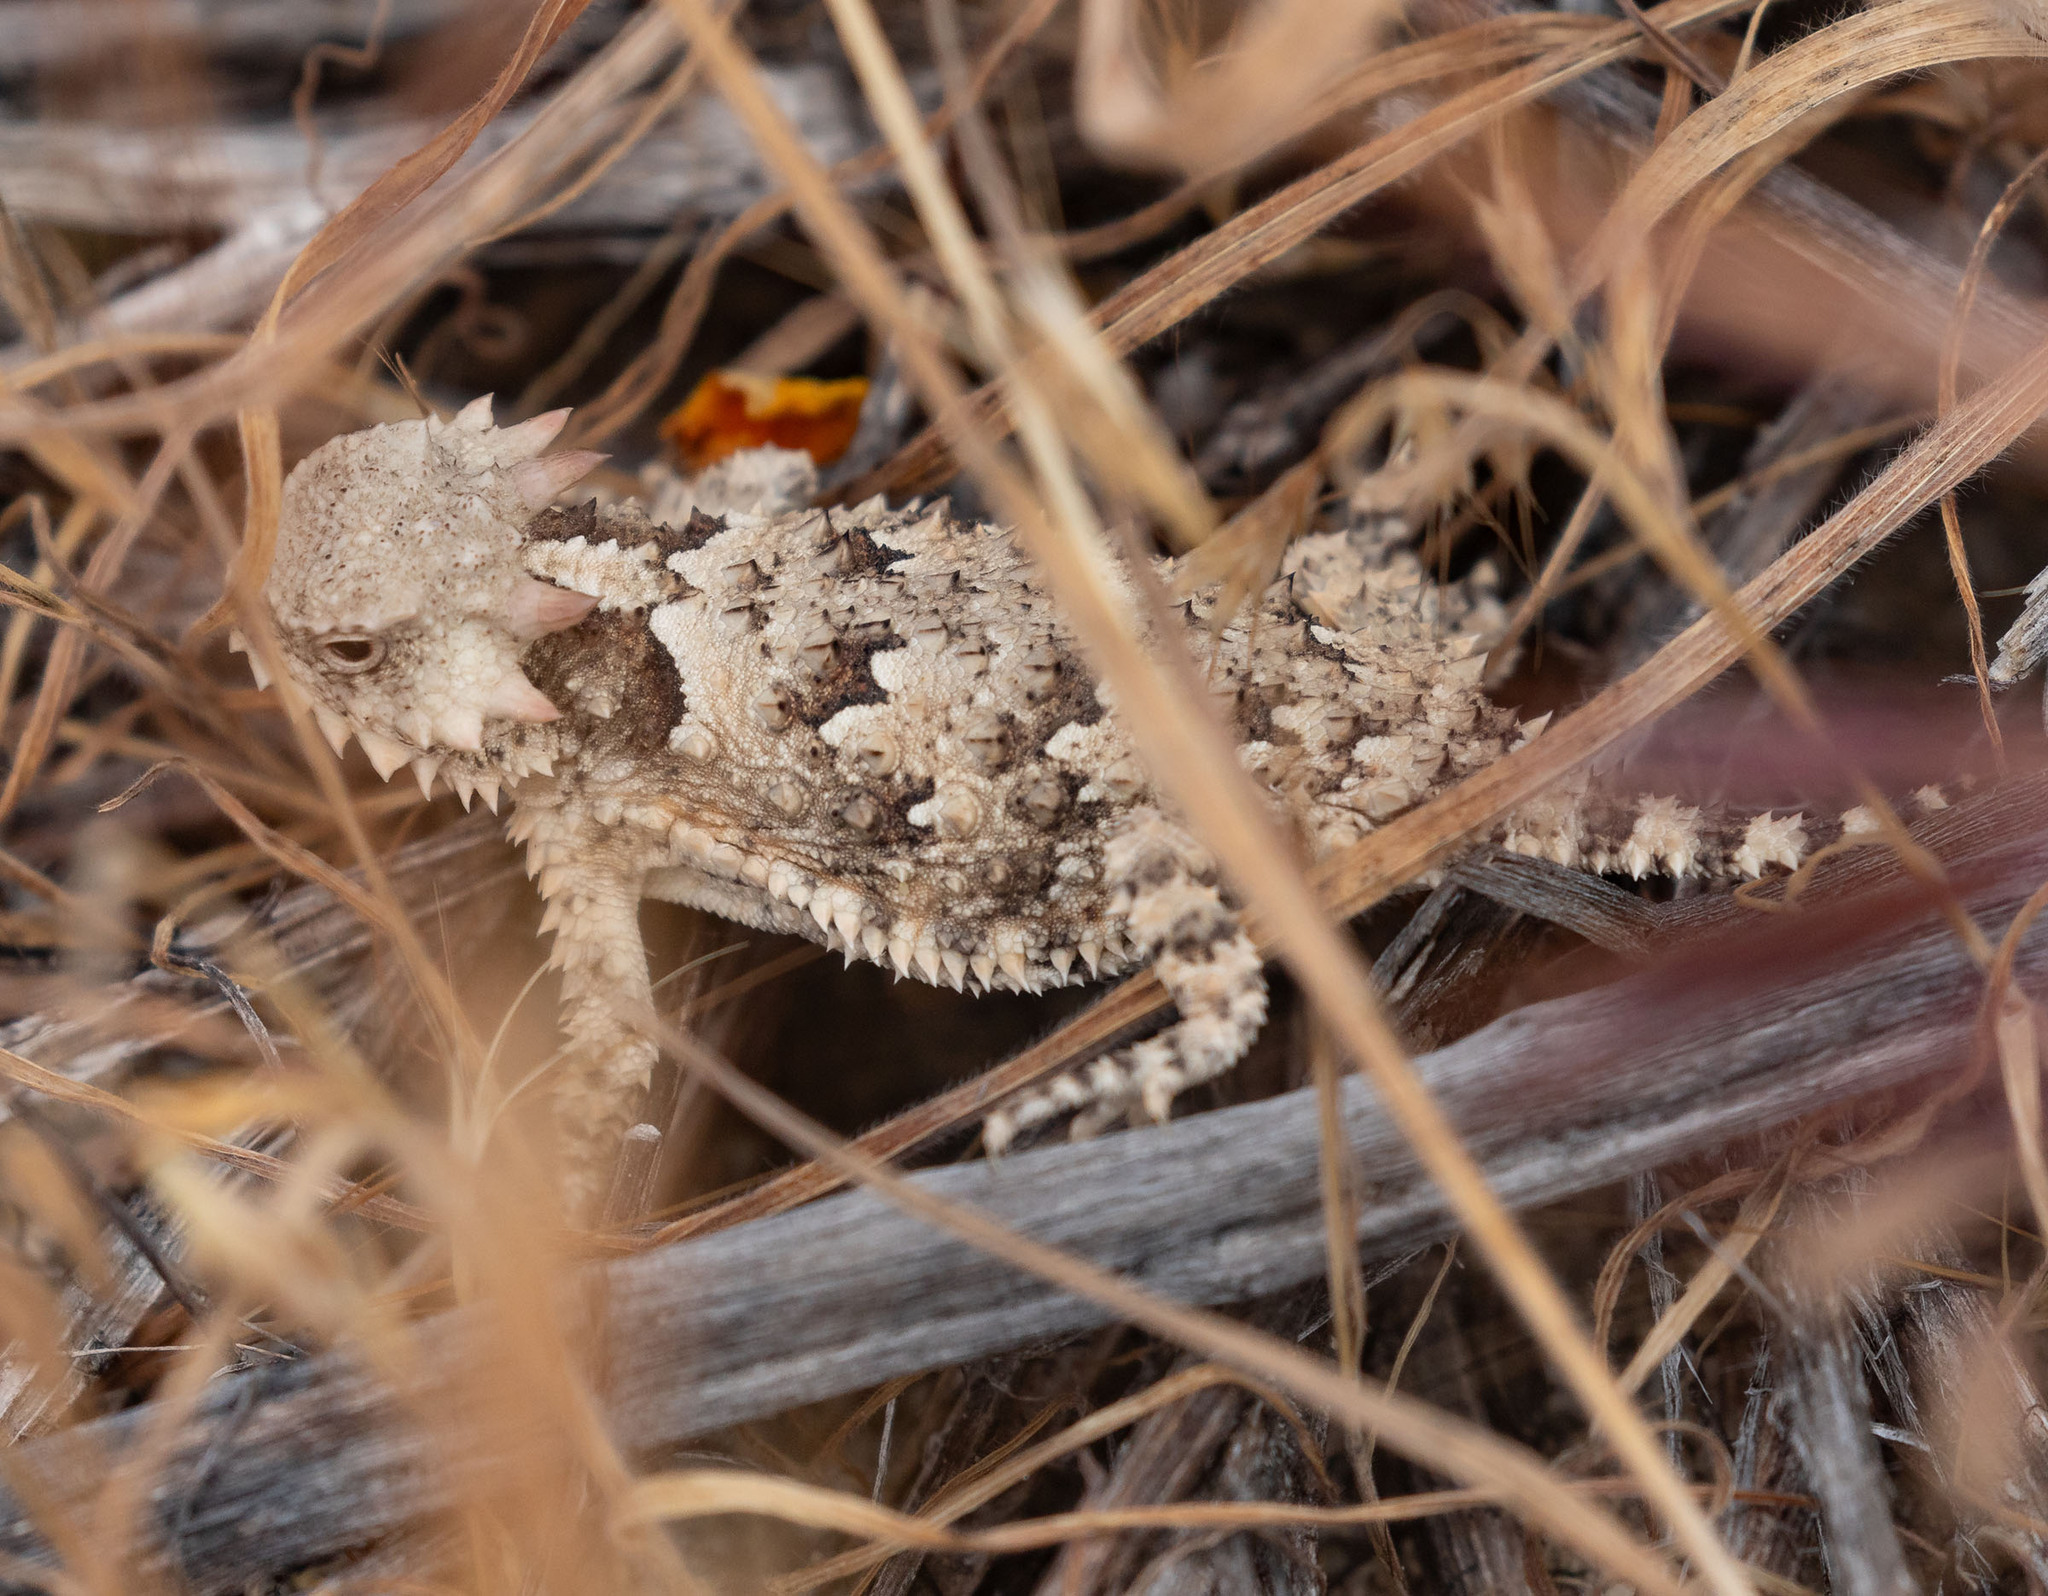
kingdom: Animalia
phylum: Chordata
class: Squamata
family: Phrynosomatidae
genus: Phrynosoma
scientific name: Phrynosoma blainvillii
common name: San diego horned lizard
